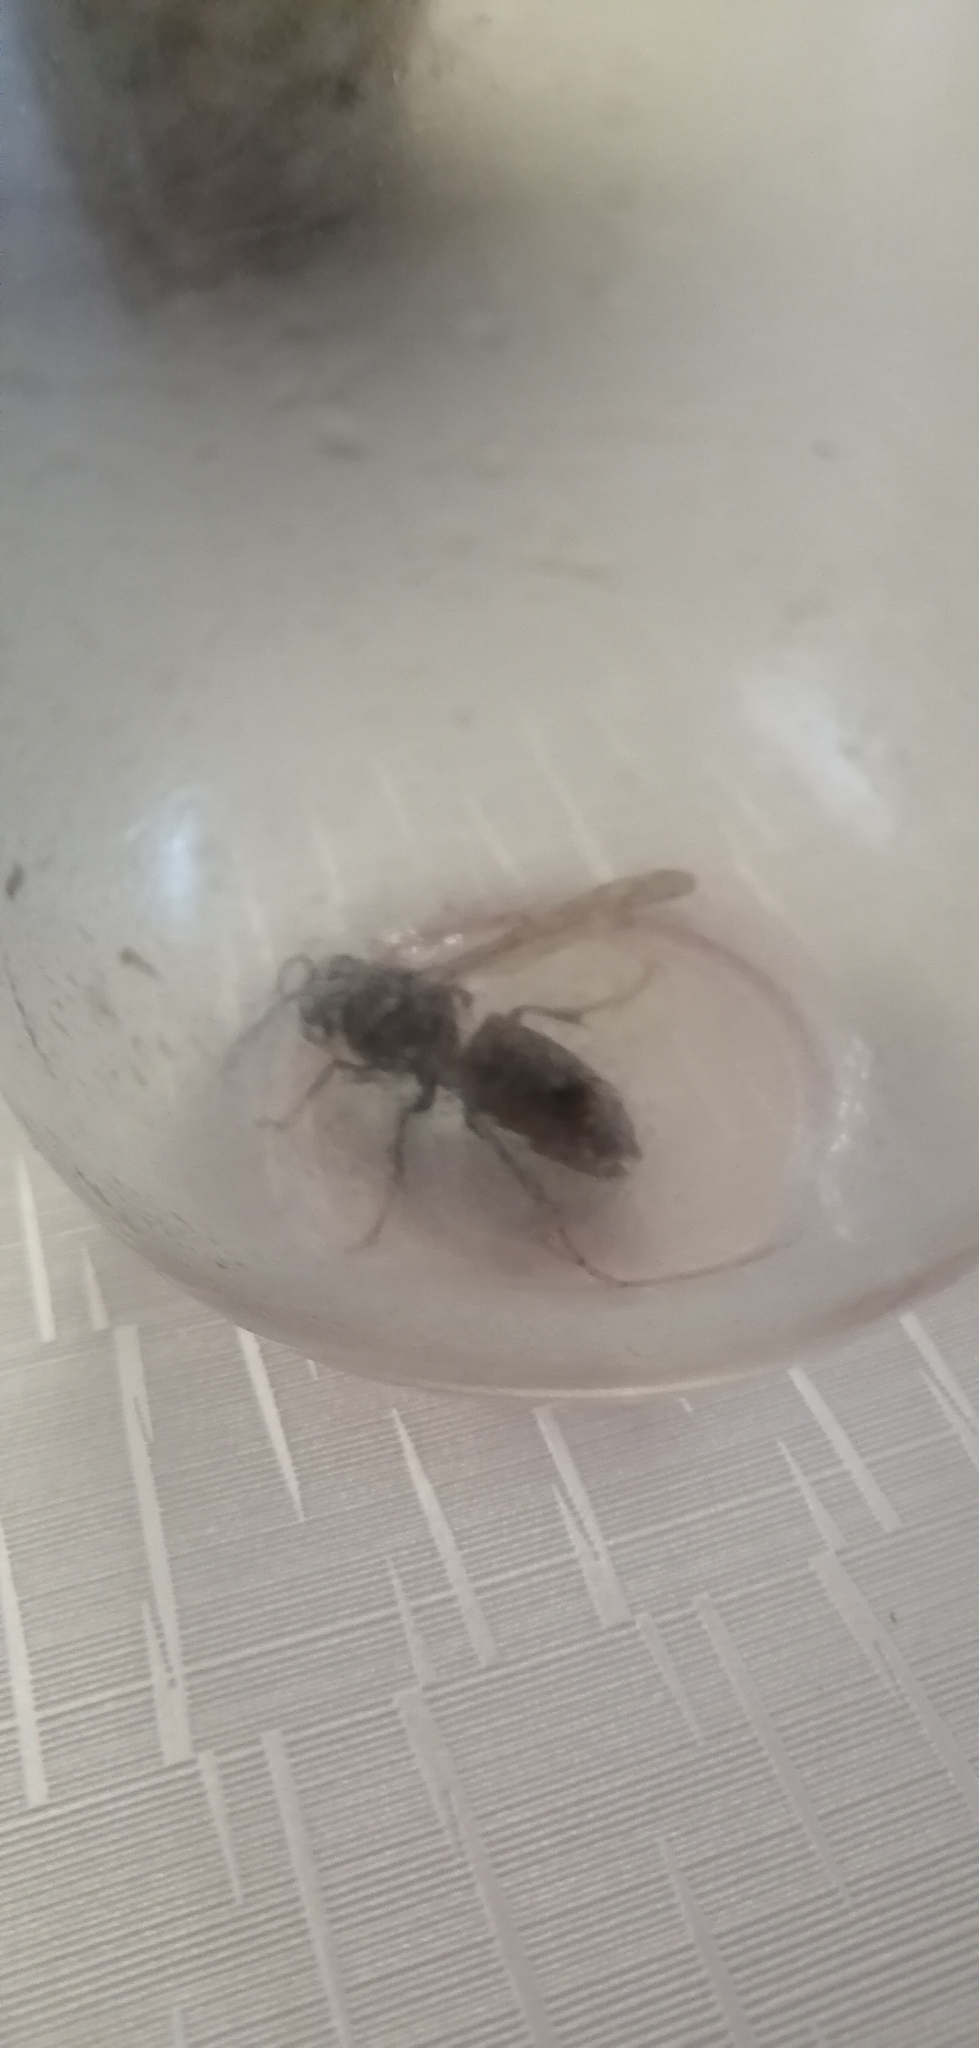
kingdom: Animalia
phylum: Arthropoda
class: Insecta
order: Hymenoptera
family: Vespidae
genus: Vespa
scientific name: Vespa velutina
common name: Asian hornet
